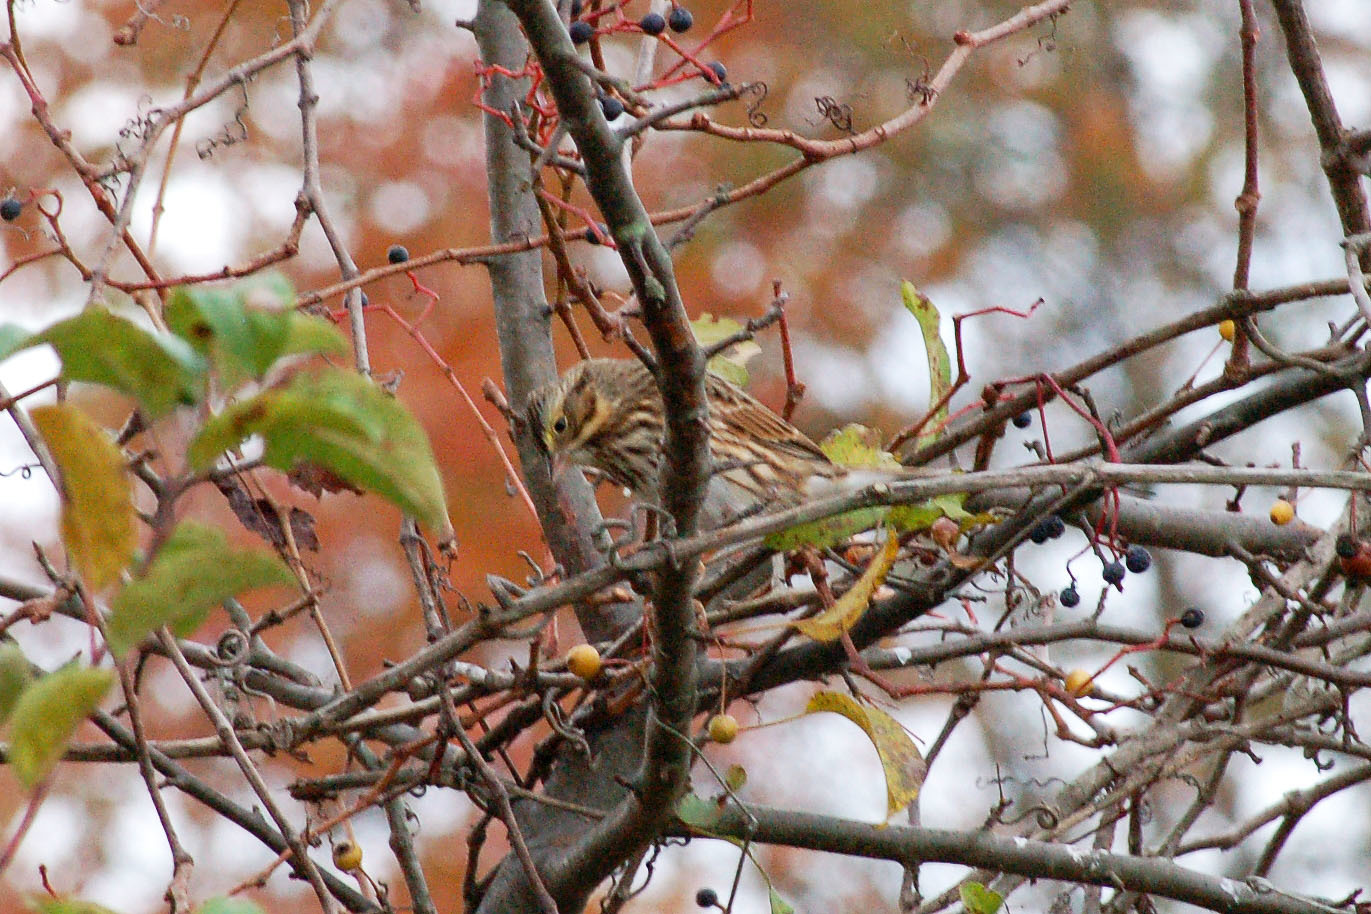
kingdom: Animalia
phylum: Chordata
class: Aves
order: Passeriformes
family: Passerellidae
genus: Passerculus
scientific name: Passerculus sandwichensis
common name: Savannah sparrow
